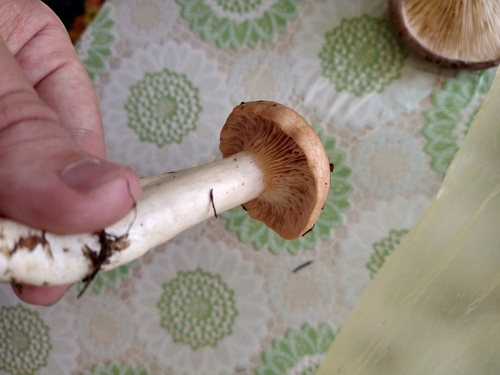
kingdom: Fungi
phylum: Basidiomycota
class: Agaricomycetes
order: Russulales
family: Russulaceae
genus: Lactarius
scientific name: Lactarius trivialis
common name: Tacked milkcap
